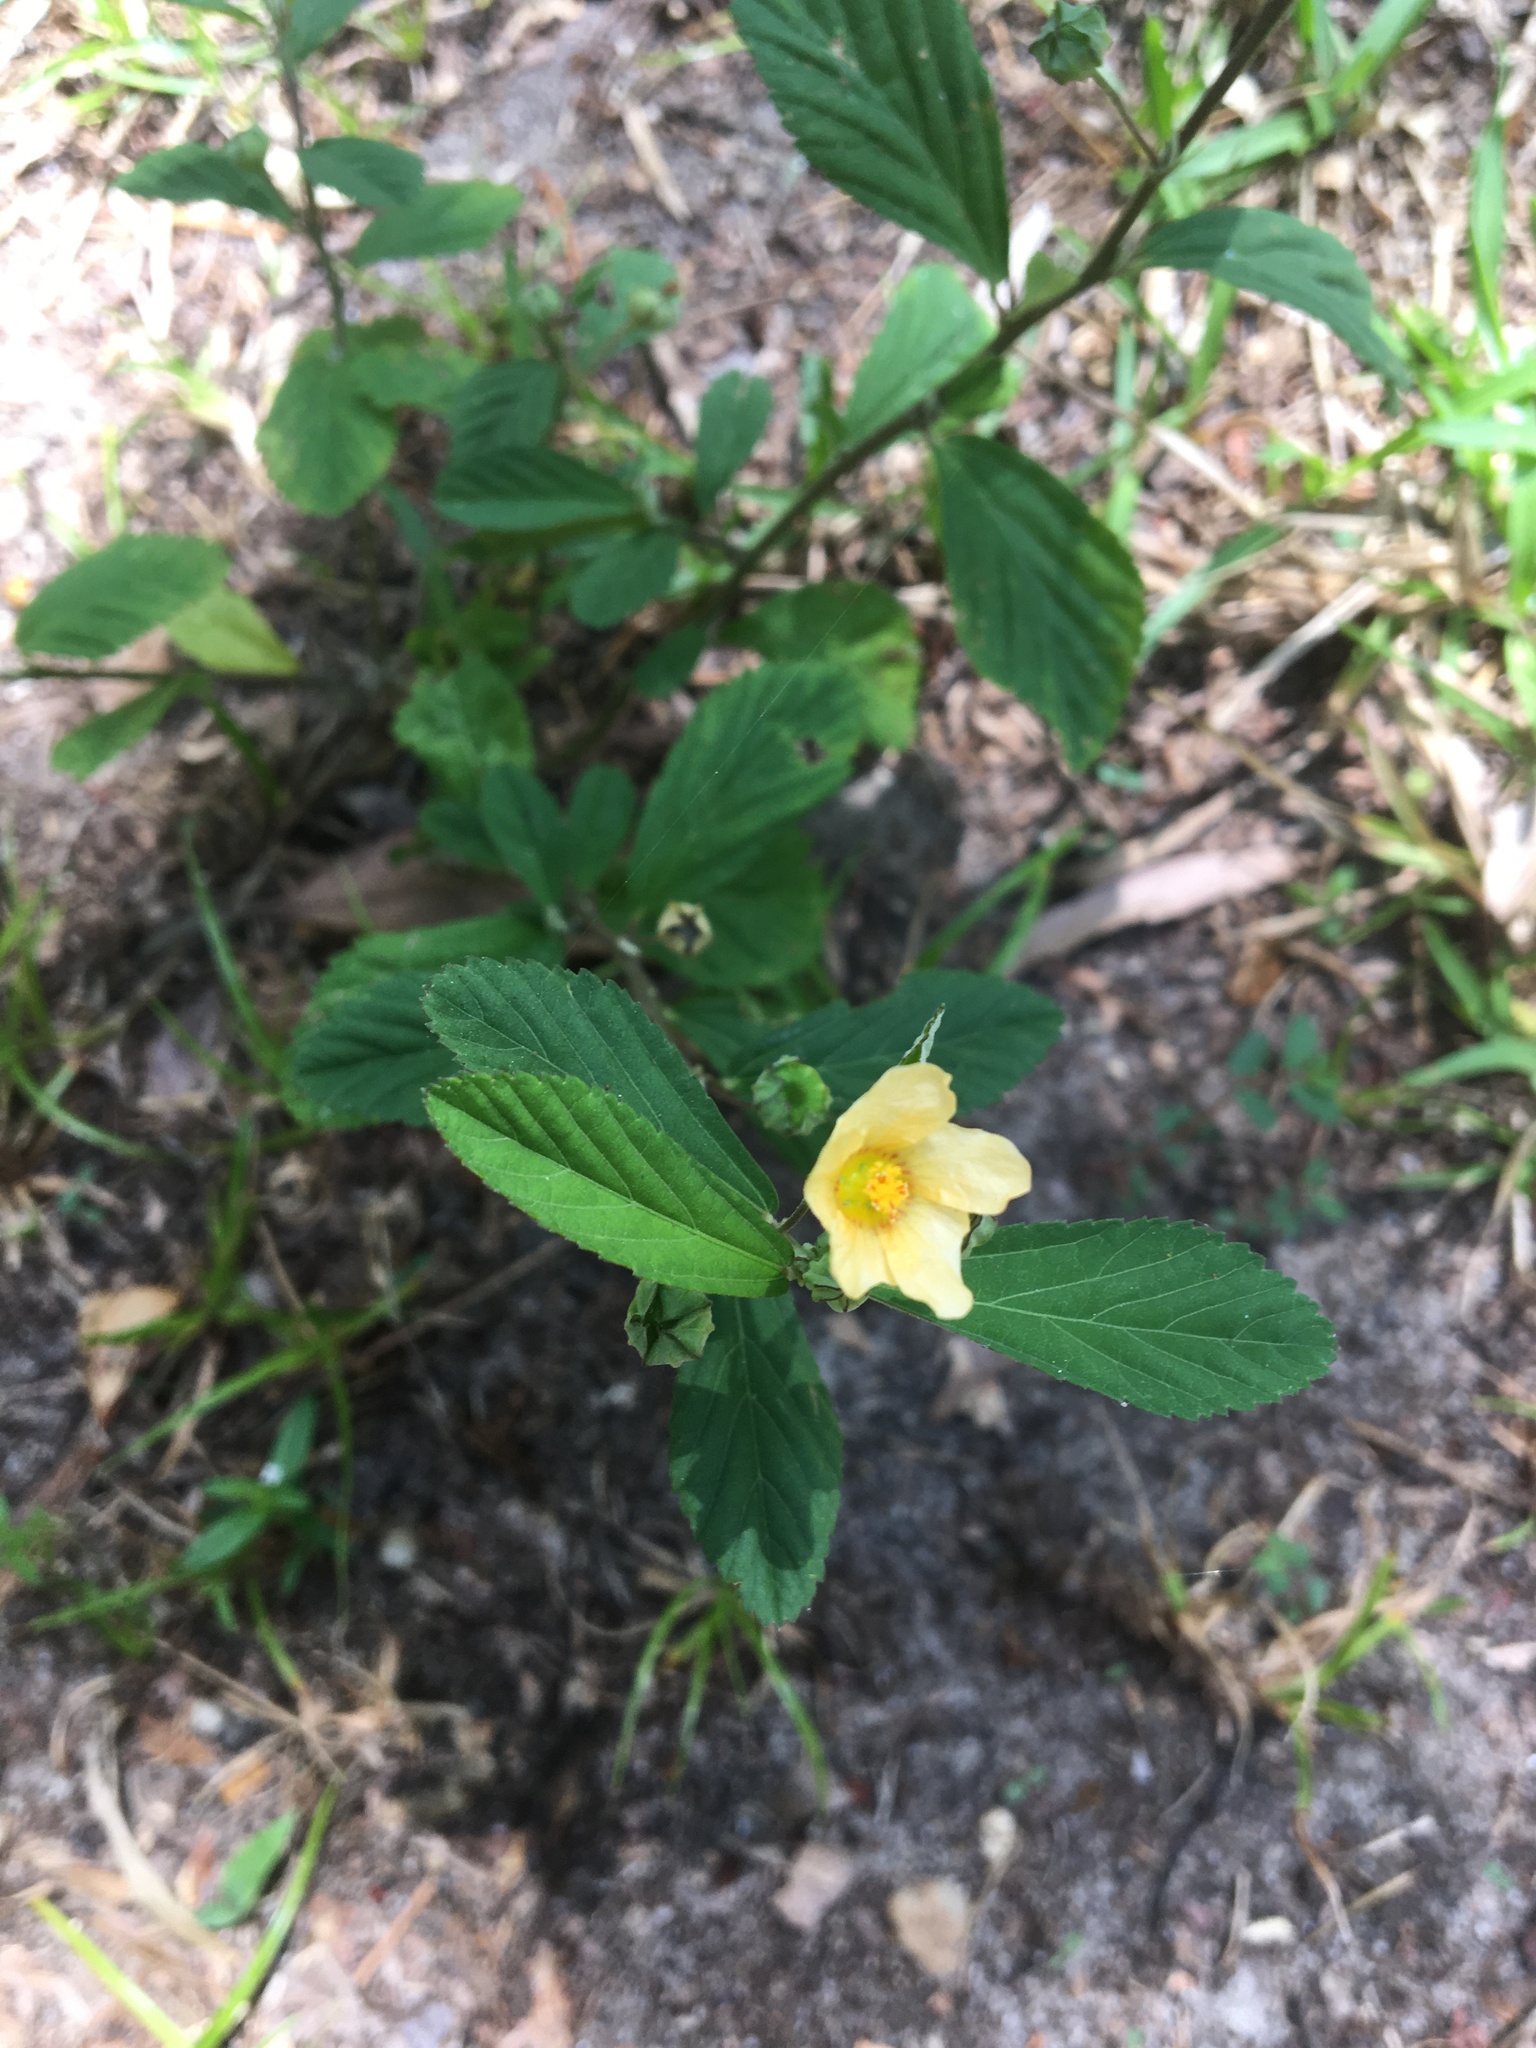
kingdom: Plantae
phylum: Tracheophyta
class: Magnoliopsida
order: Malvales
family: Malvaceae
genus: Sida
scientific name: Sida rhombifolia
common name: Queensland-hemp
